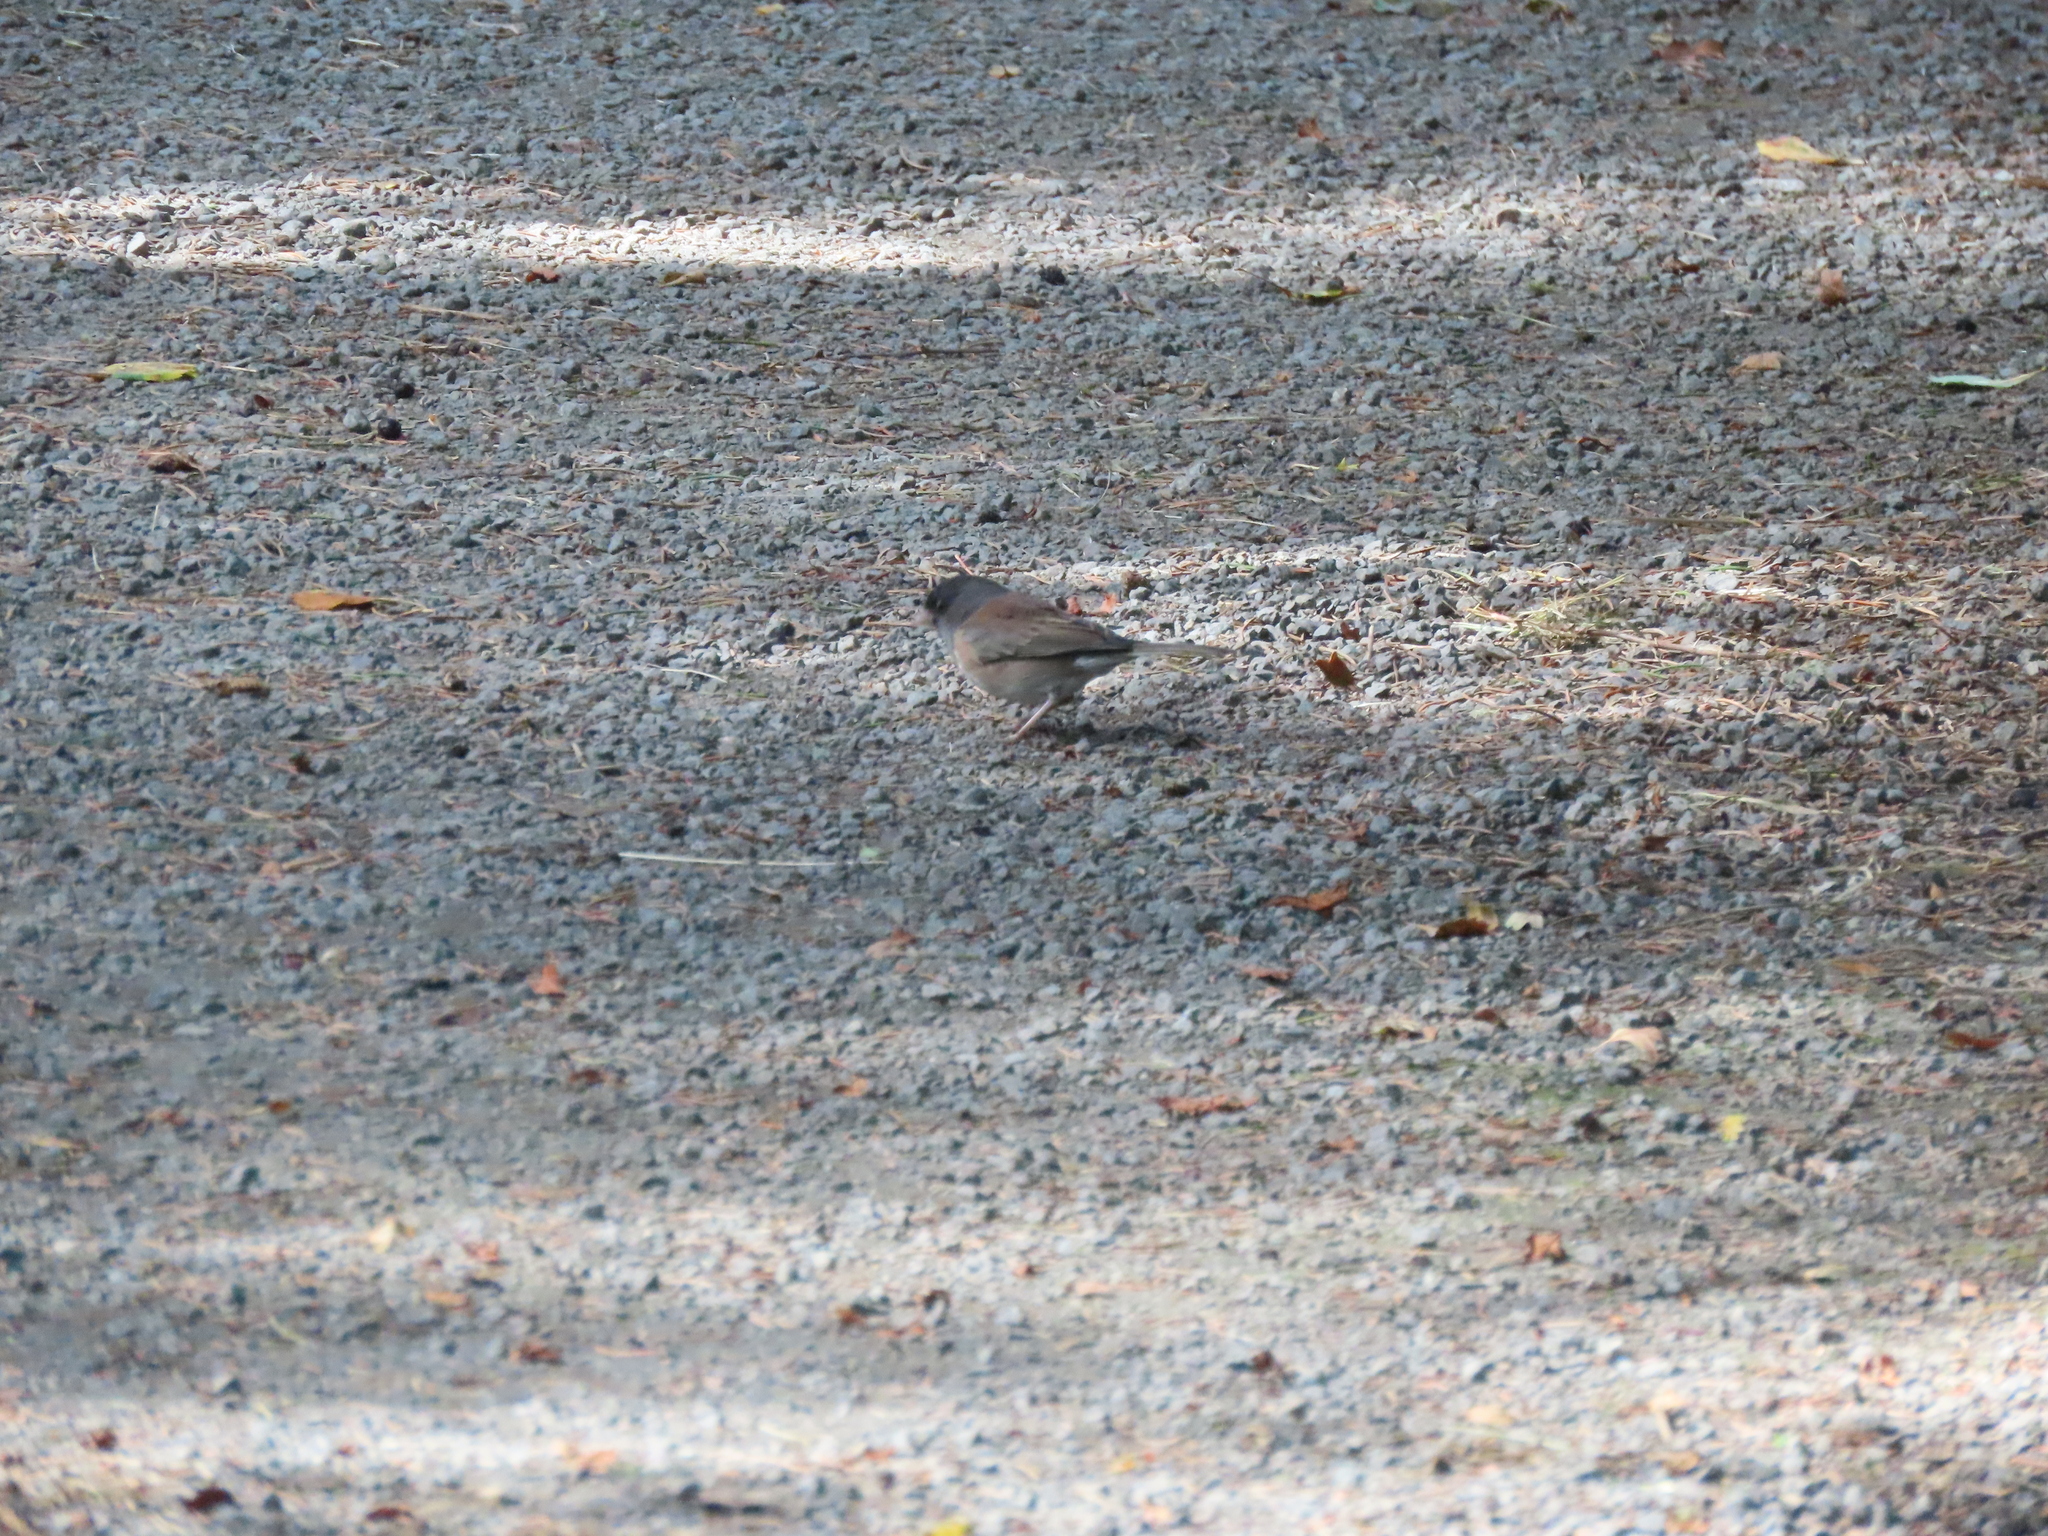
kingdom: Animalia
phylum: Chordata
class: Aves
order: Passeriformes
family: Passerellidae
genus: Junco
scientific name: Junco hyemalis
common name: Dark-eyed junco
